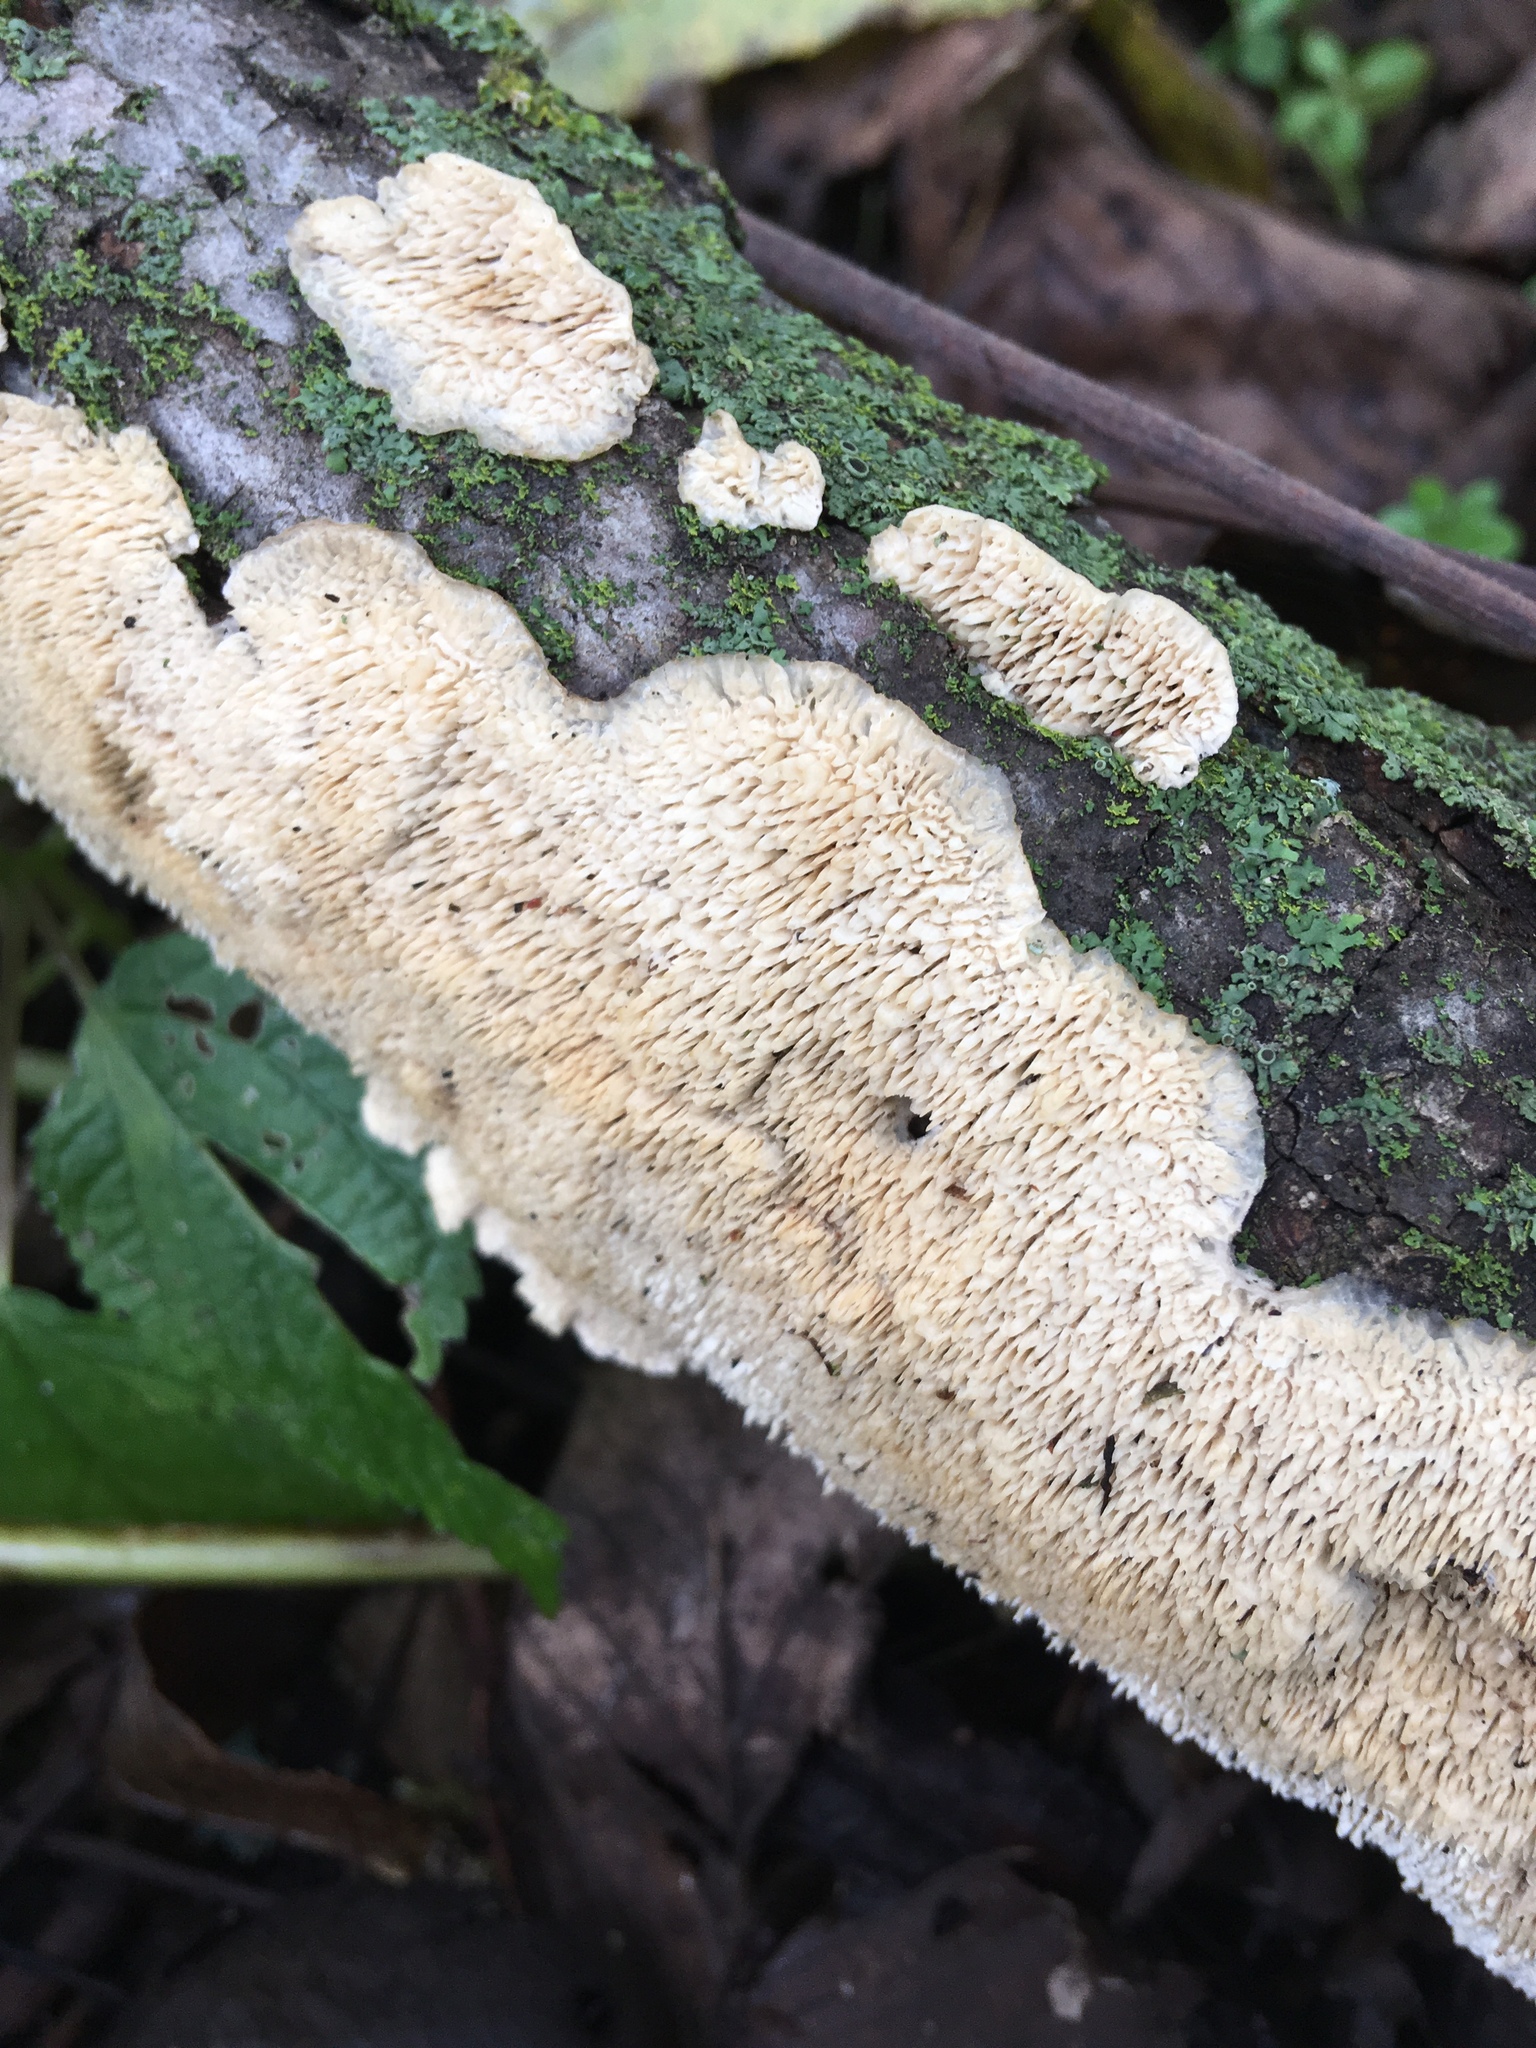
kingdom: Fungi
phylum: Basidiomycota
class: Agaricomycetes
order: Polyporales
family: Irpicaceae
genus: Irpex
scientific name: Irpex lacteus
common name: Milk-white toothed polypore
